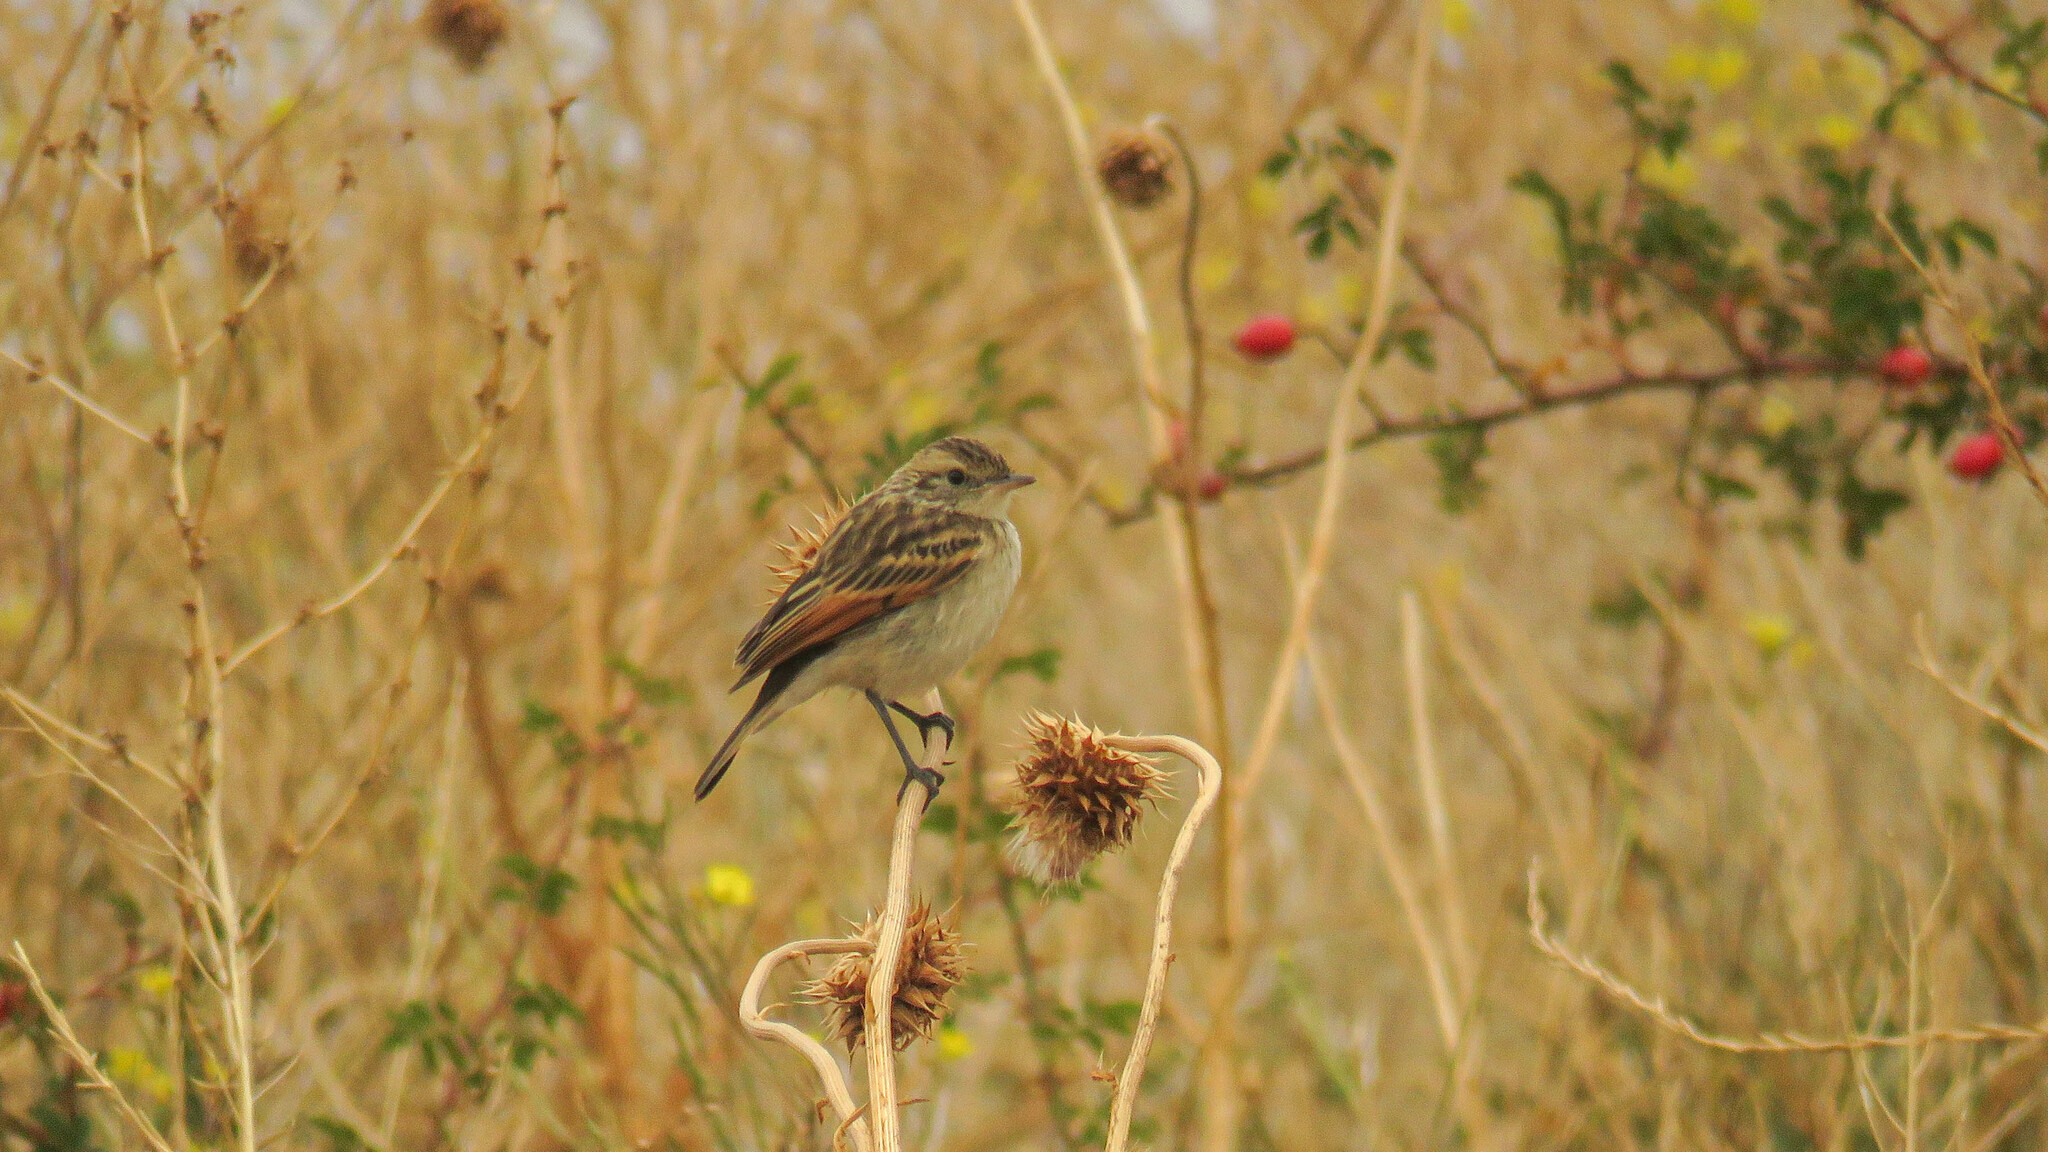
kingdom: Animalia
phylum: Chordata
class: Aves
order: Passeriformes
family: Tyrannidae
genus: Hymenops
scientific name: Hymenops perspicillatus
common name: Spectacled tyrant
